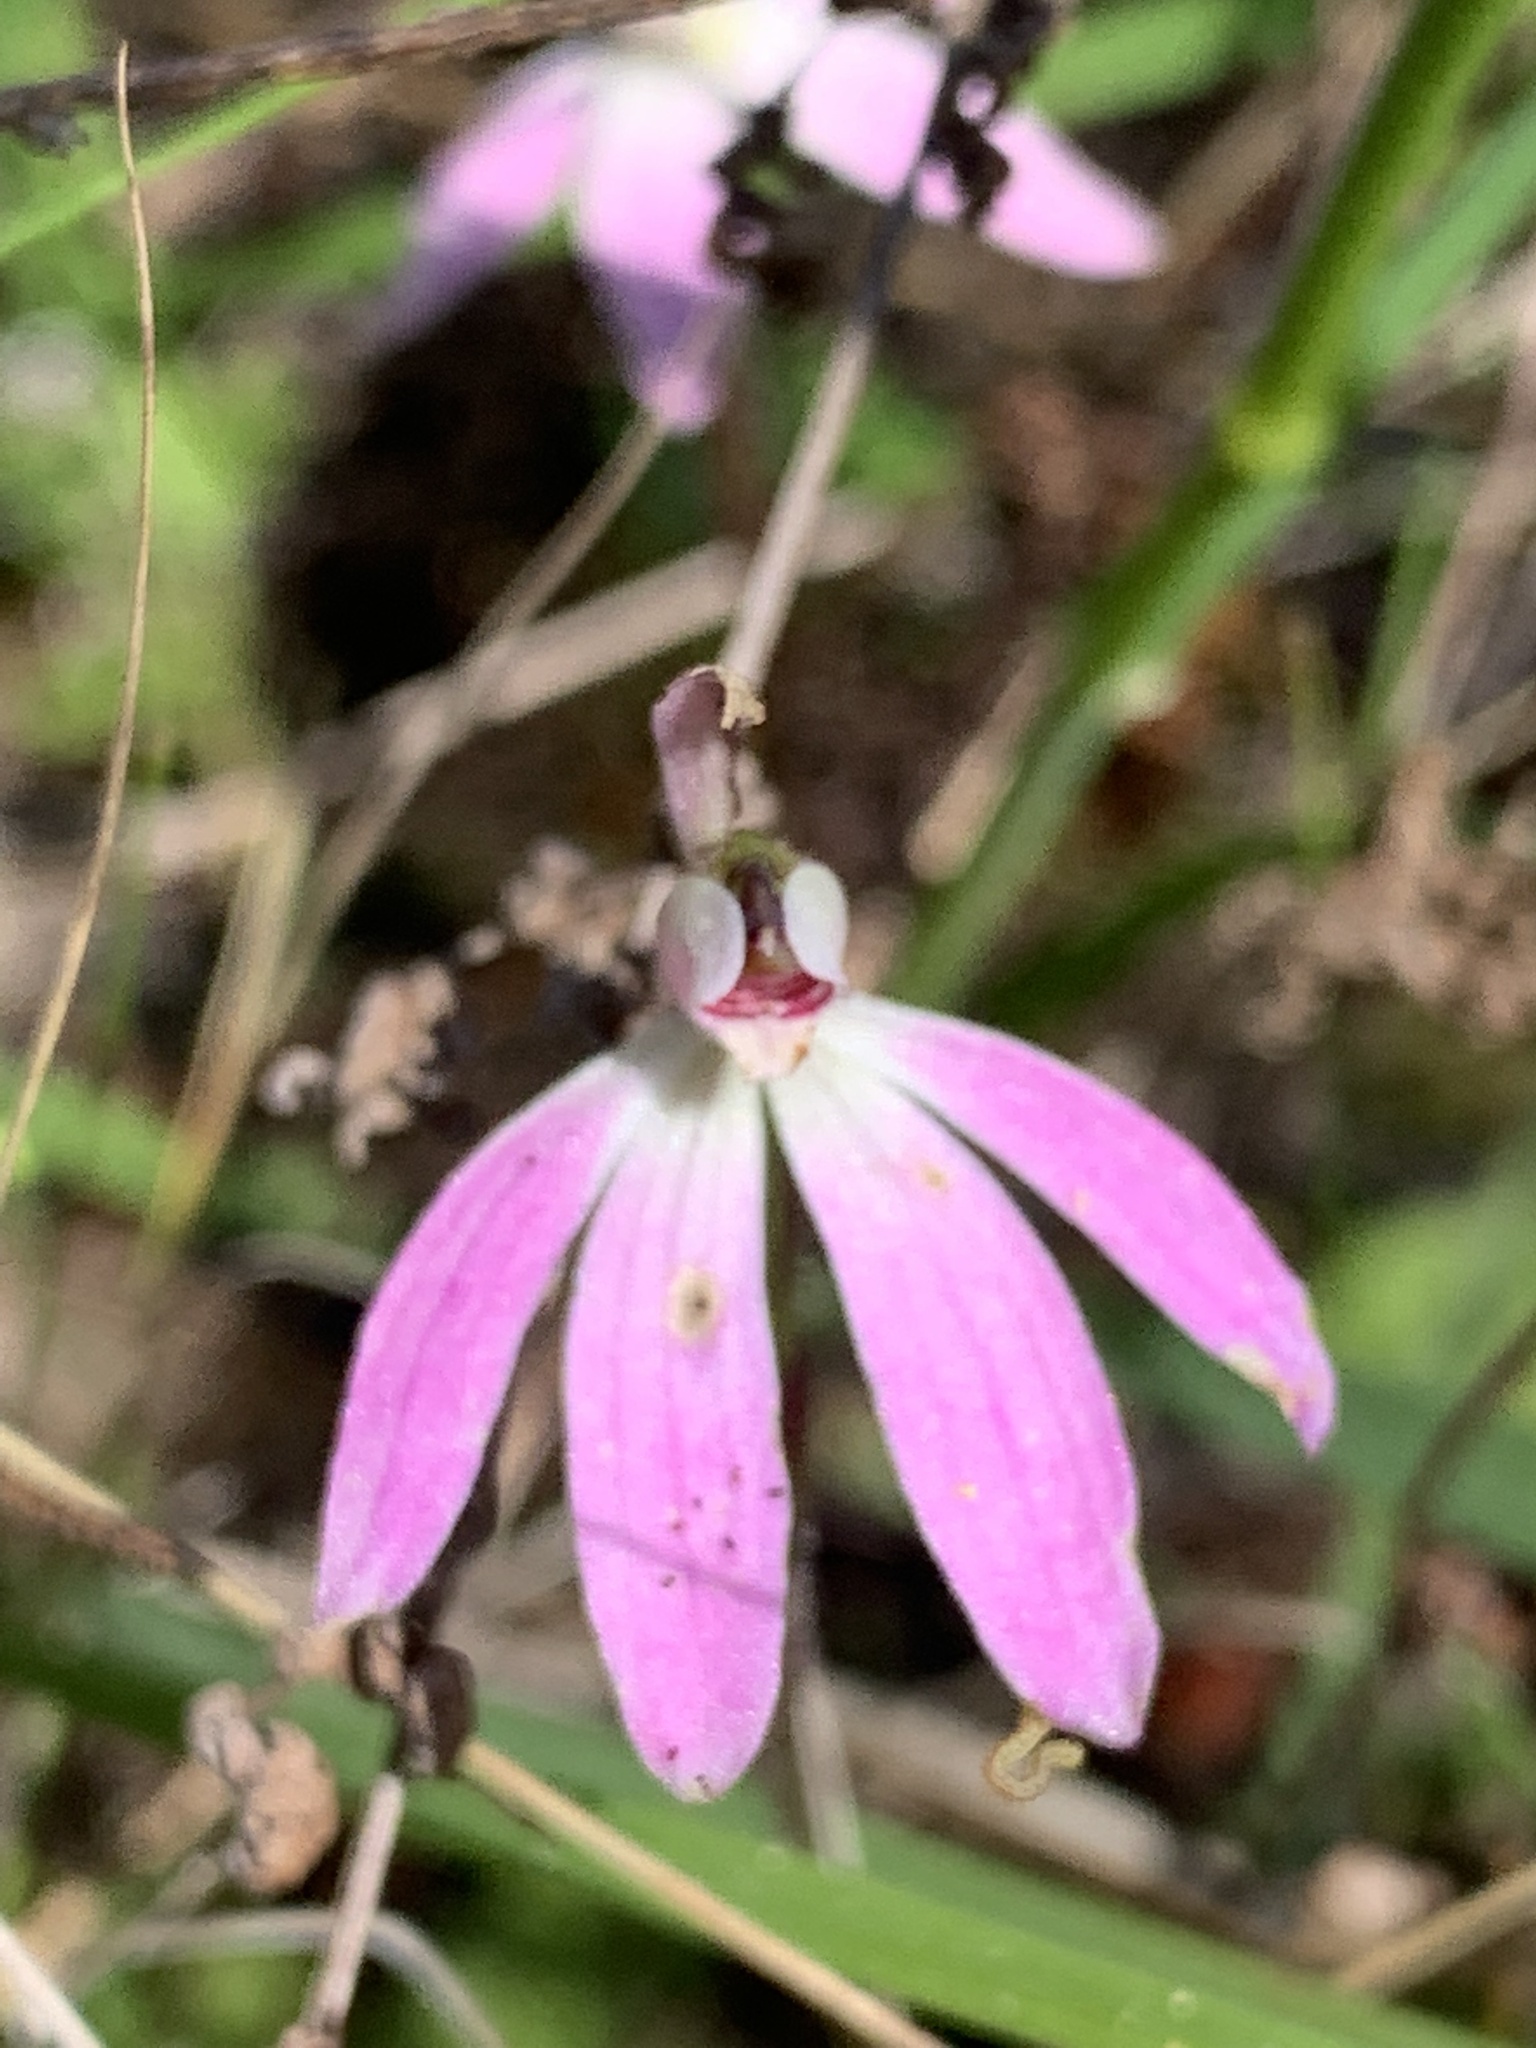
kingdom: Plantae
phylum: Tracheophyta
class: Liliopsida
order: Asparagales
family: Orchidaceae
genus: Caladenia
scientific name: Caladenia fuscata
